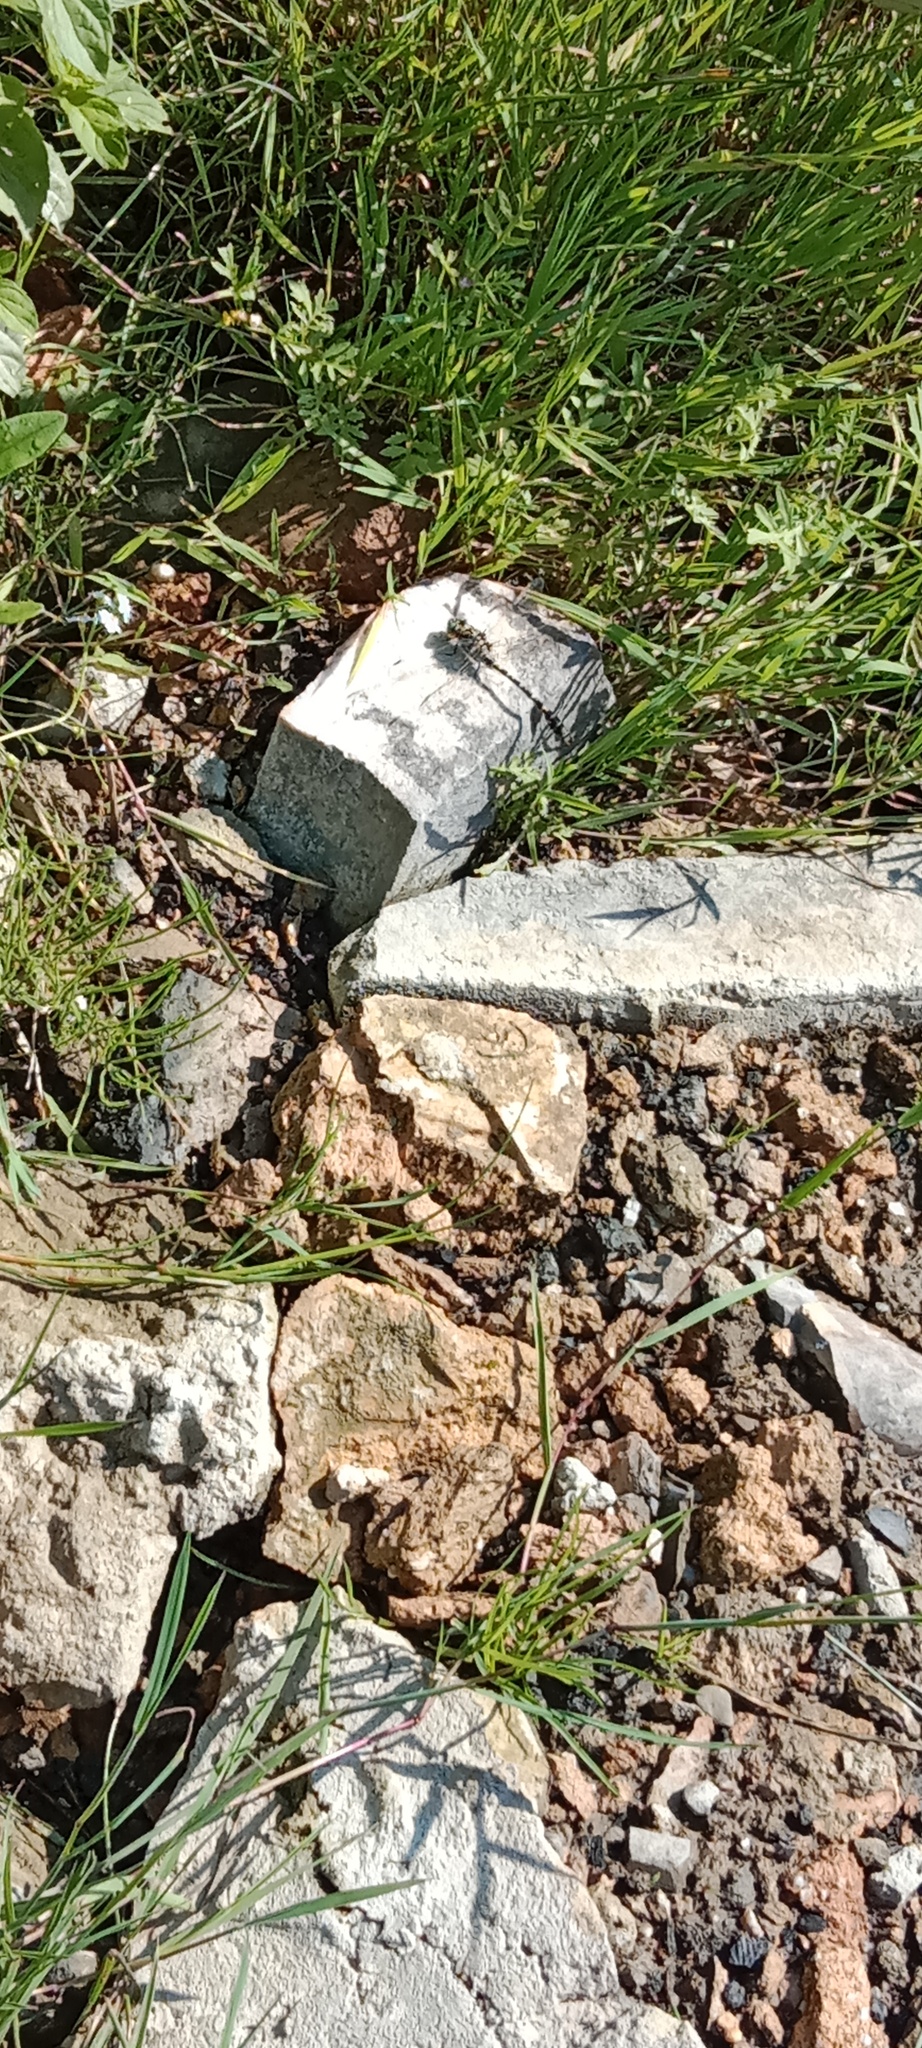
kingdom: Animalia
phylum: Arthropoda
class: Insecta
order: Odonata
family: Gomphidae
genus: Onychogomphus
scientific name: Onychogomphus forcipatus
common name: Small pincertail
